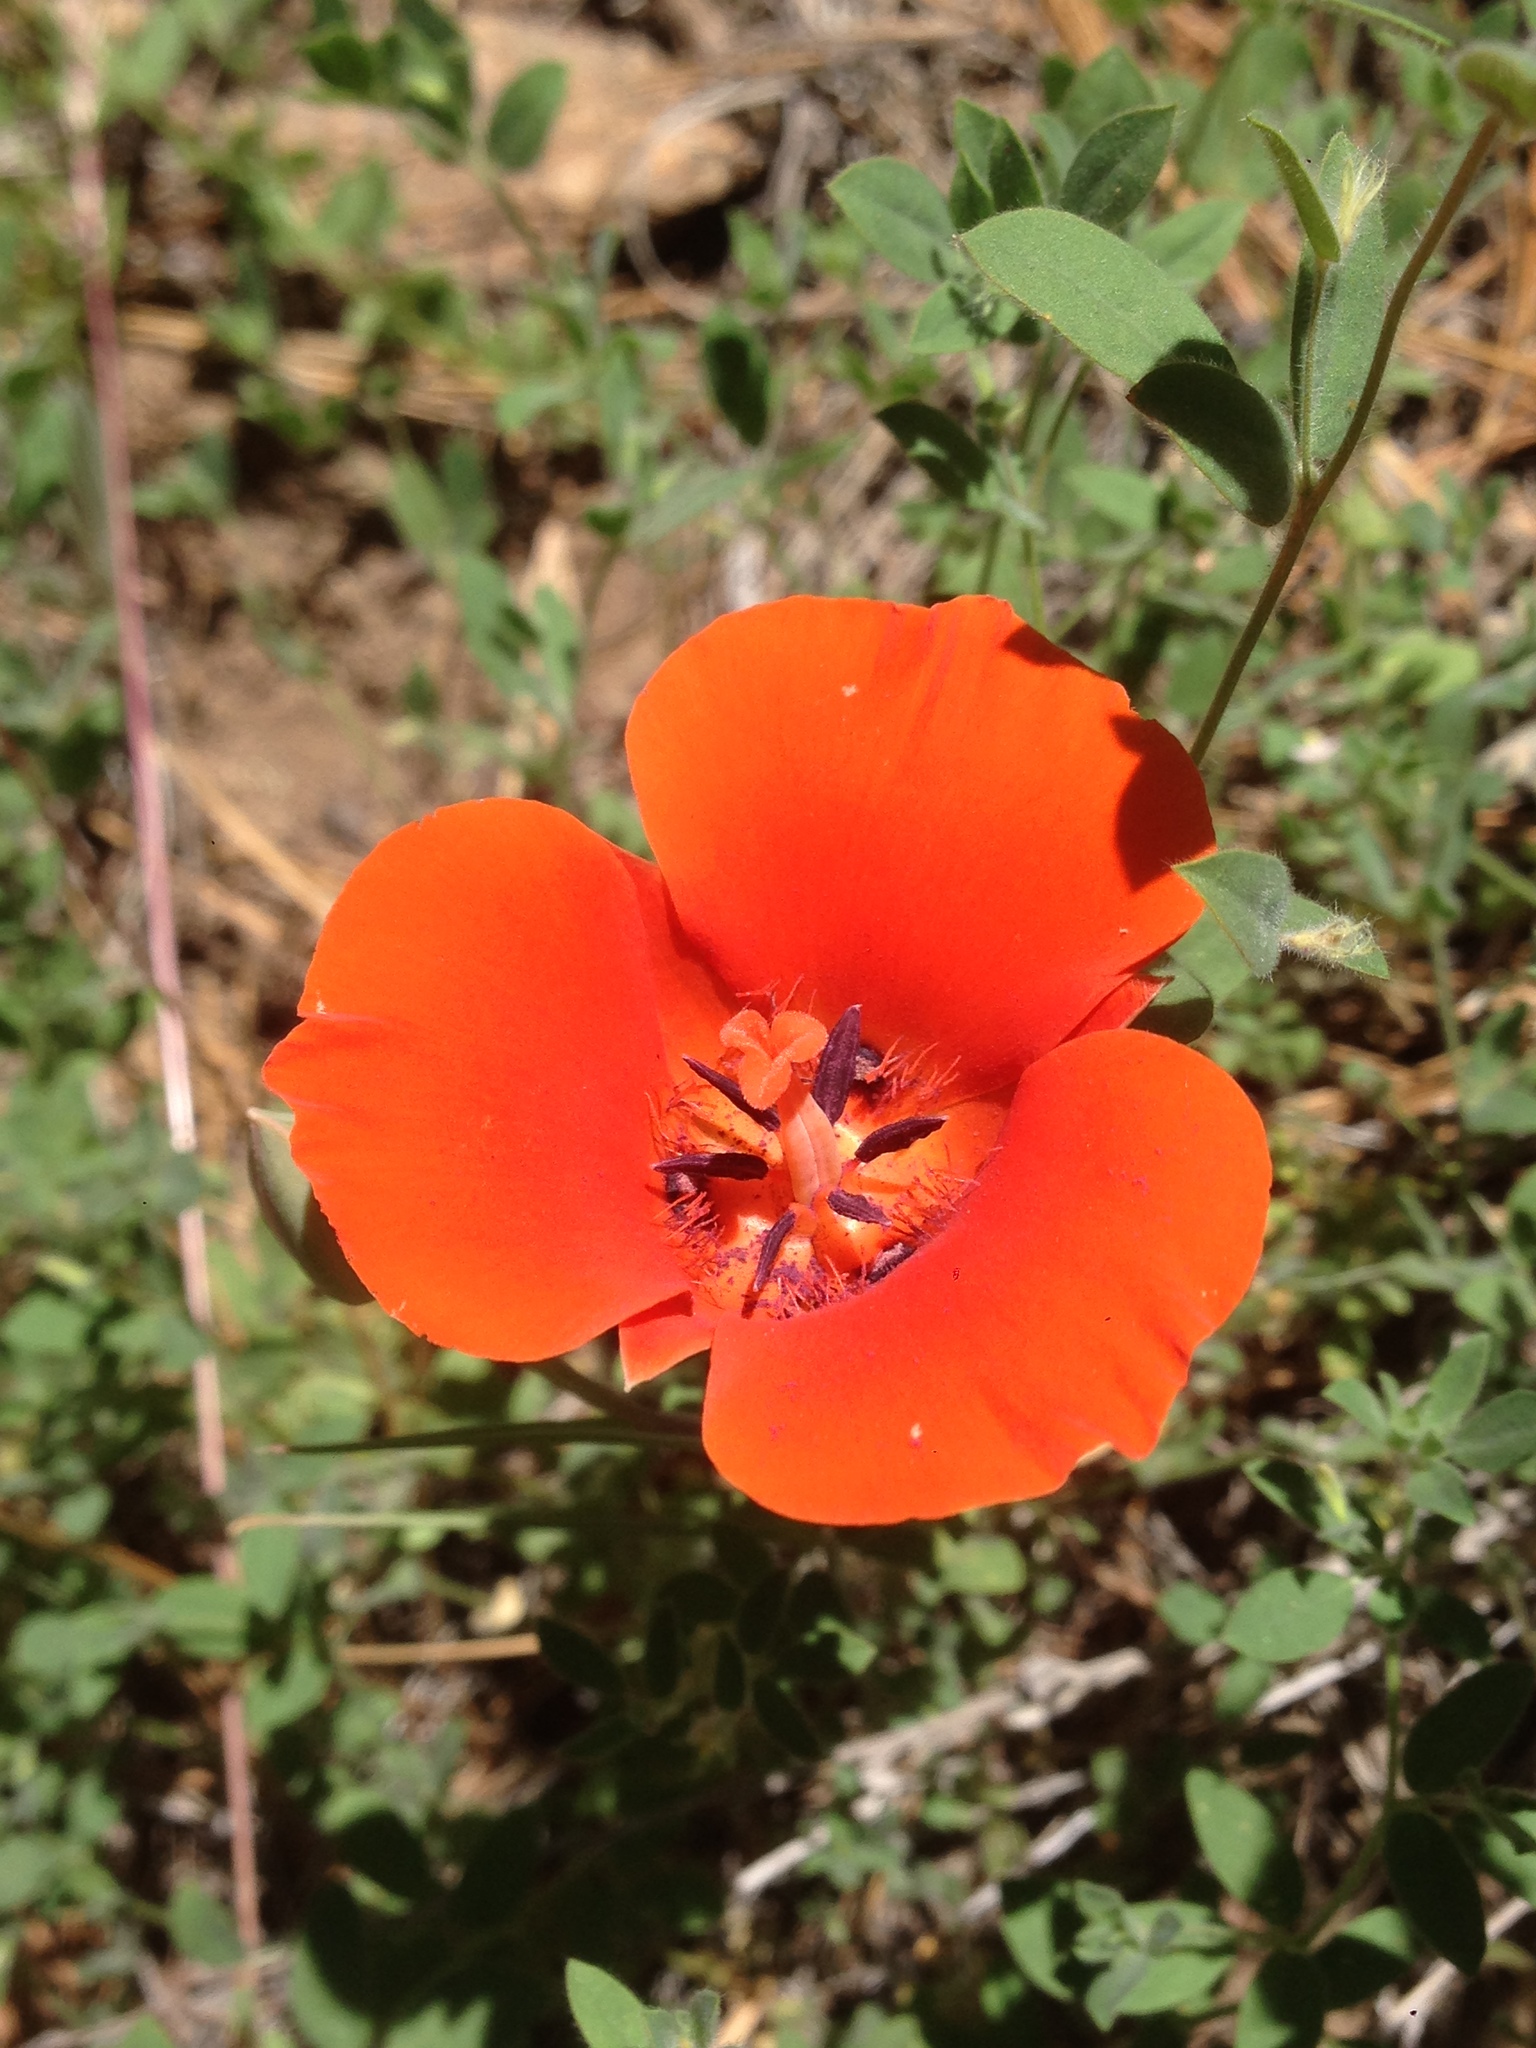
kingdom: Plantae
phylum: Tracheophyta
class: Liliopsida
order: Liliales
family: Liliaceae
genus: Calochortus
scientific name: Calochortus kennedyi
